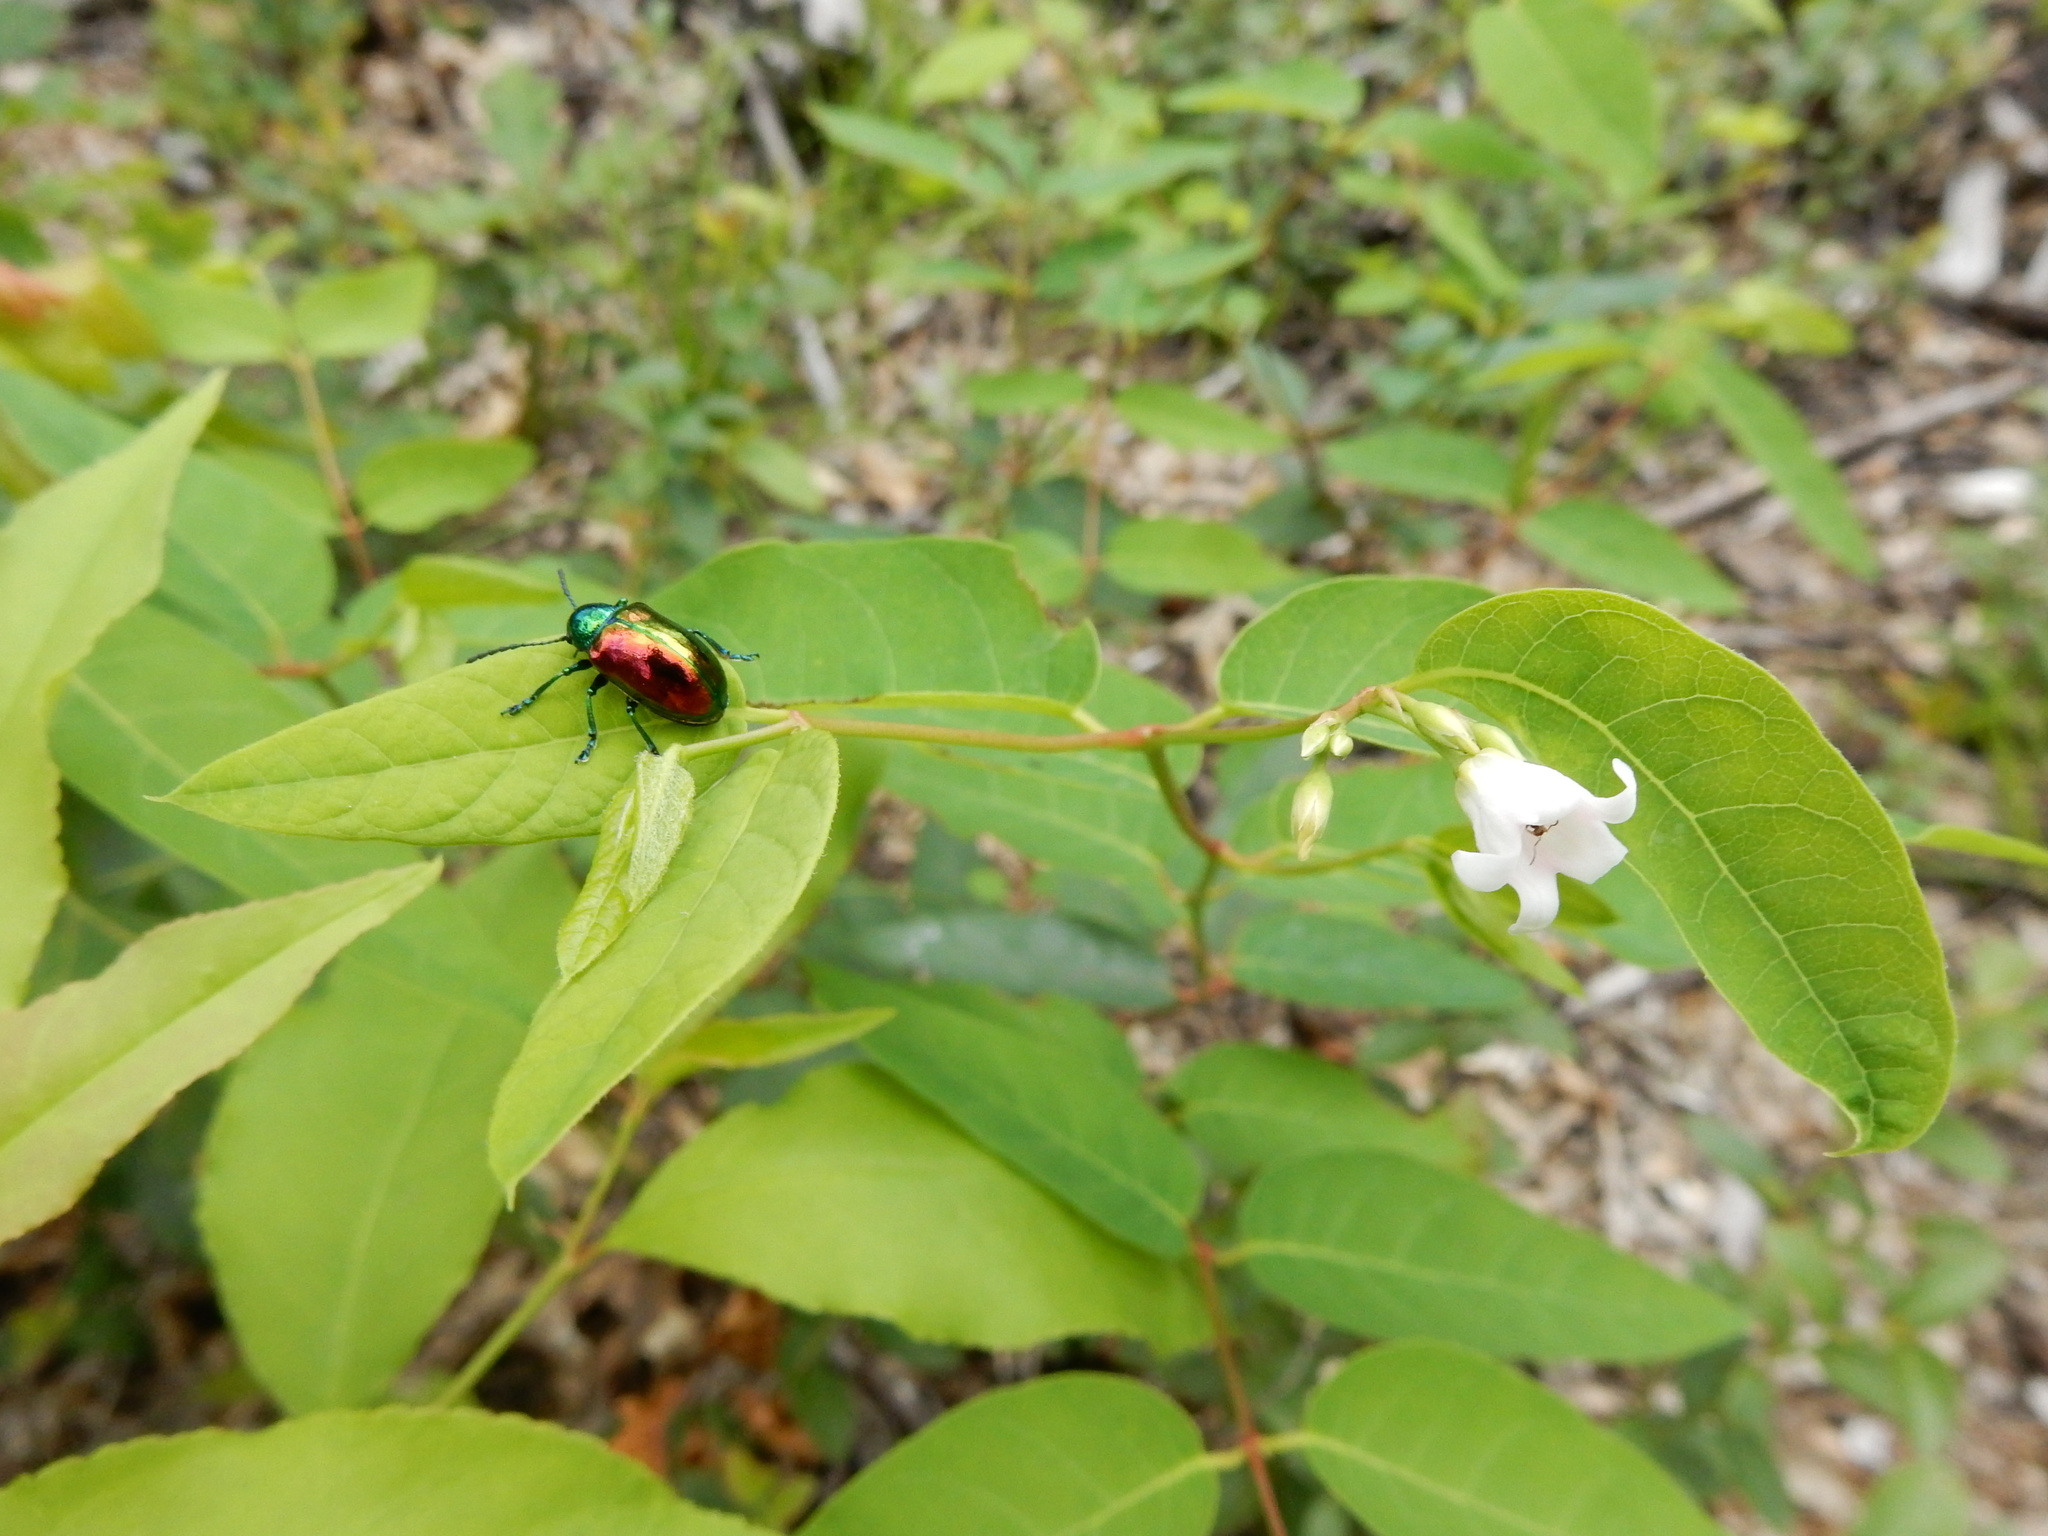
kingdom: Animalia
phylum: Arthropoda
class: Insecta
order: Coleoptera
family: Chrysomelidae
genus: Chrysochus
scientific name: Chrysochus auratus
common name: Dogbane leaf beetle
